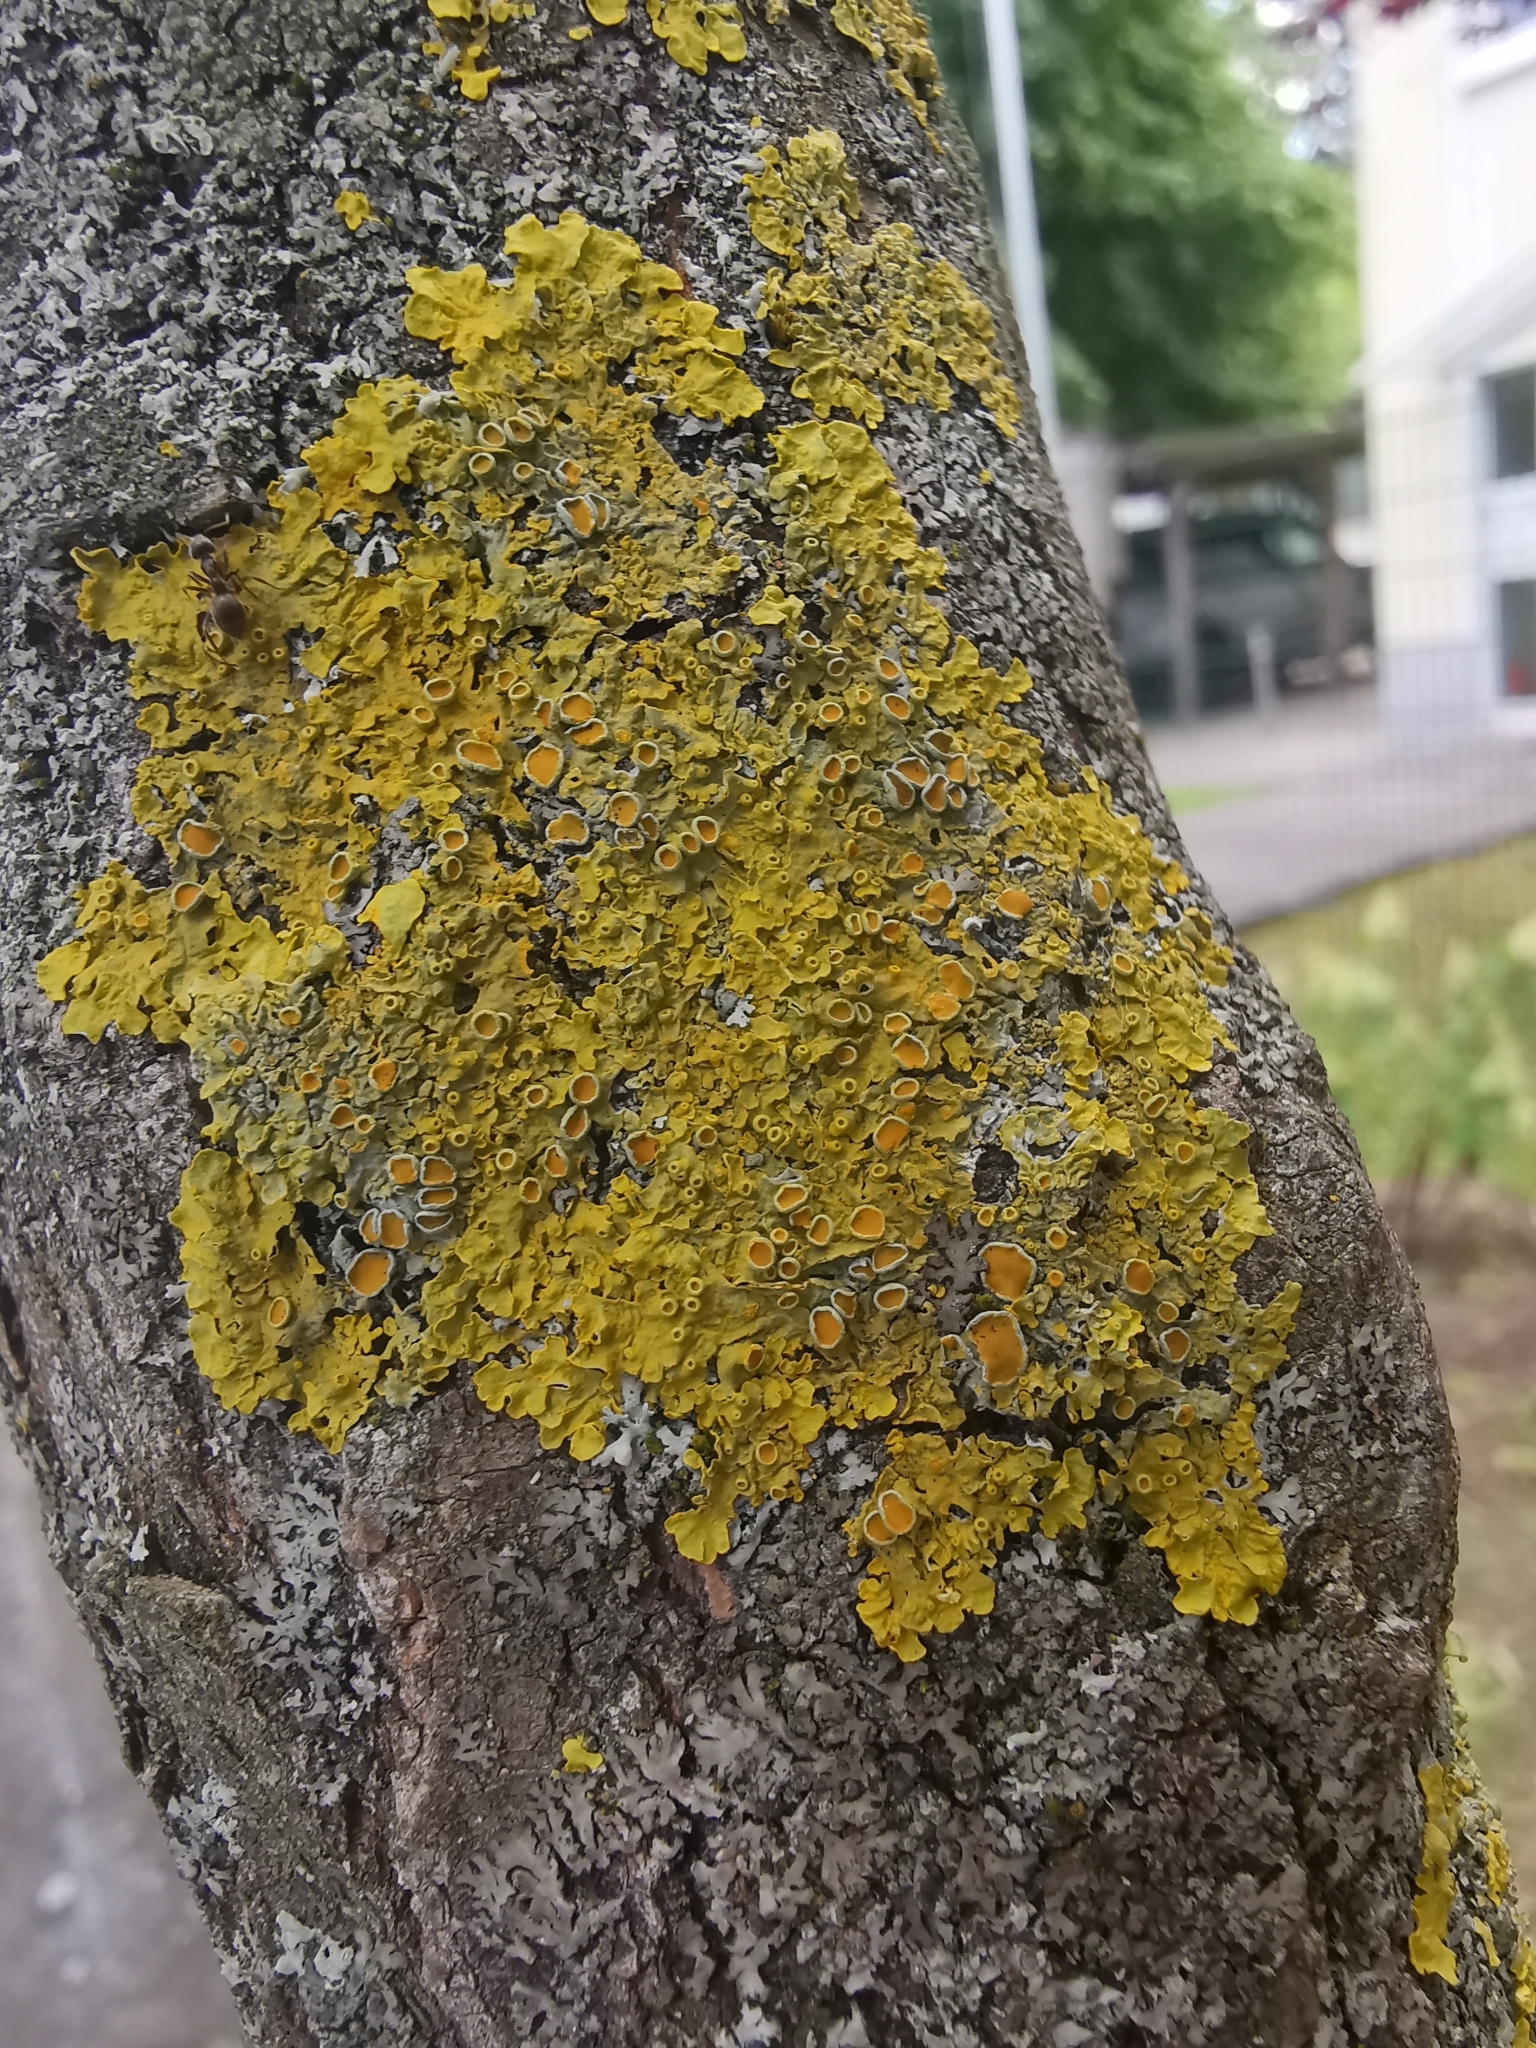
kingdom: Fungi
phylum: Ascomycota
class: Lecanoromycetes
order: Teloschistales
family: Teloschistaceae
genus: Xanthoria
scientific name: Xanthoria parietina
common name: Common orange lichen
